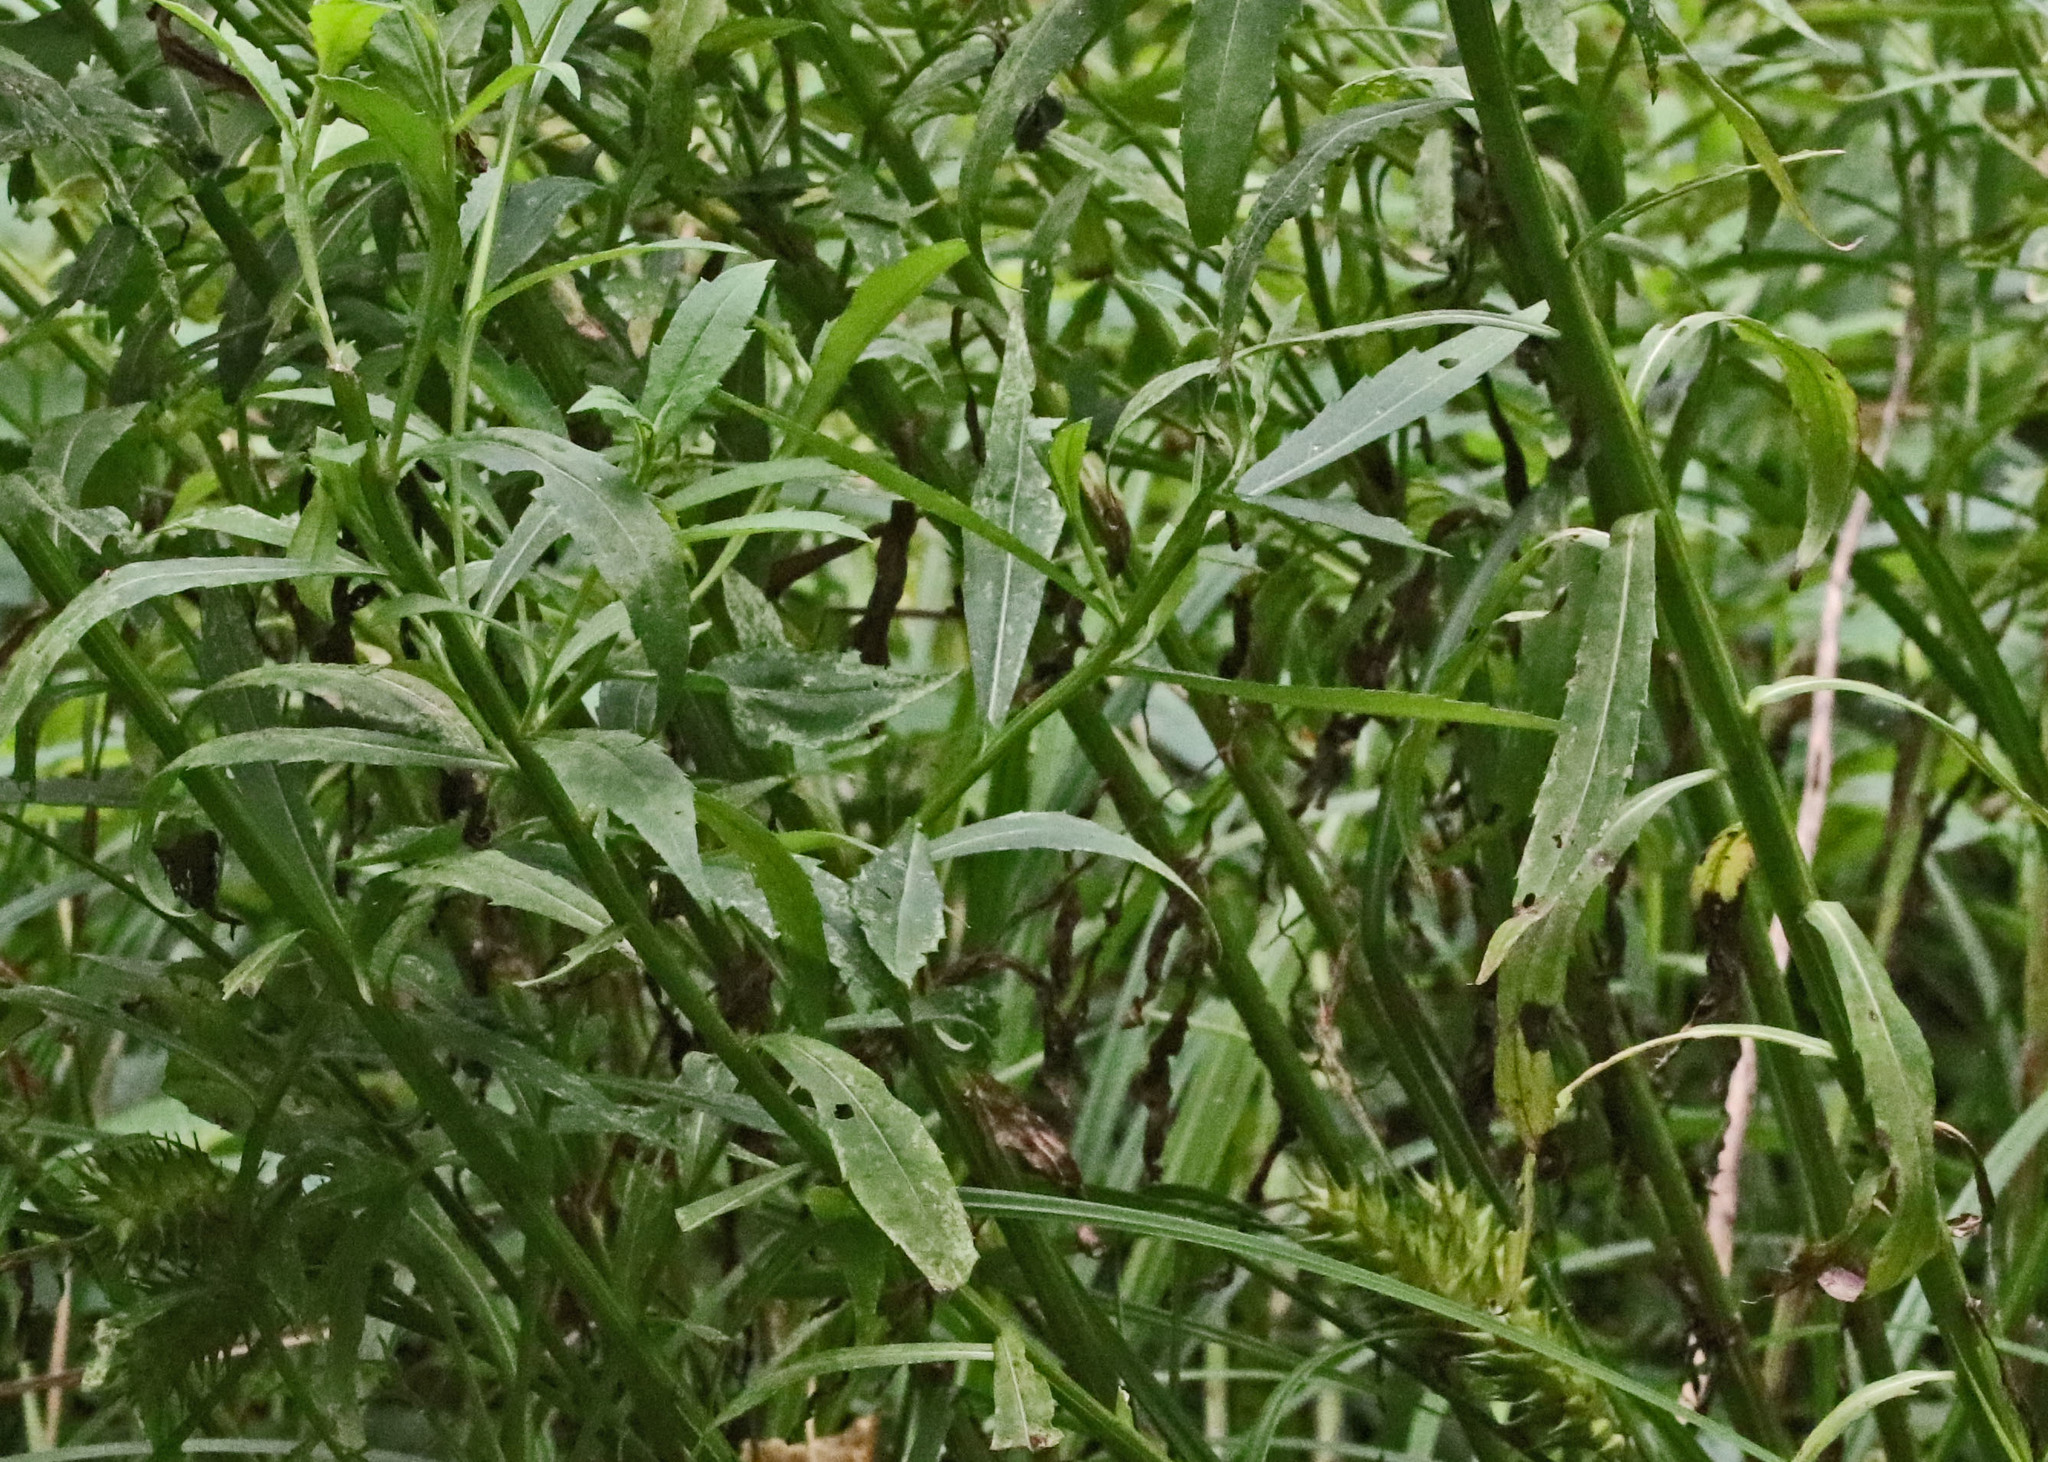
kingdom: Plantae
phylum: Tracheophyta
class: Magnoliopsida
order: Asterales
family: Asteraceae
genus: Helenium
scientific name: Helenium autumnale
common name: Sneezeweed
